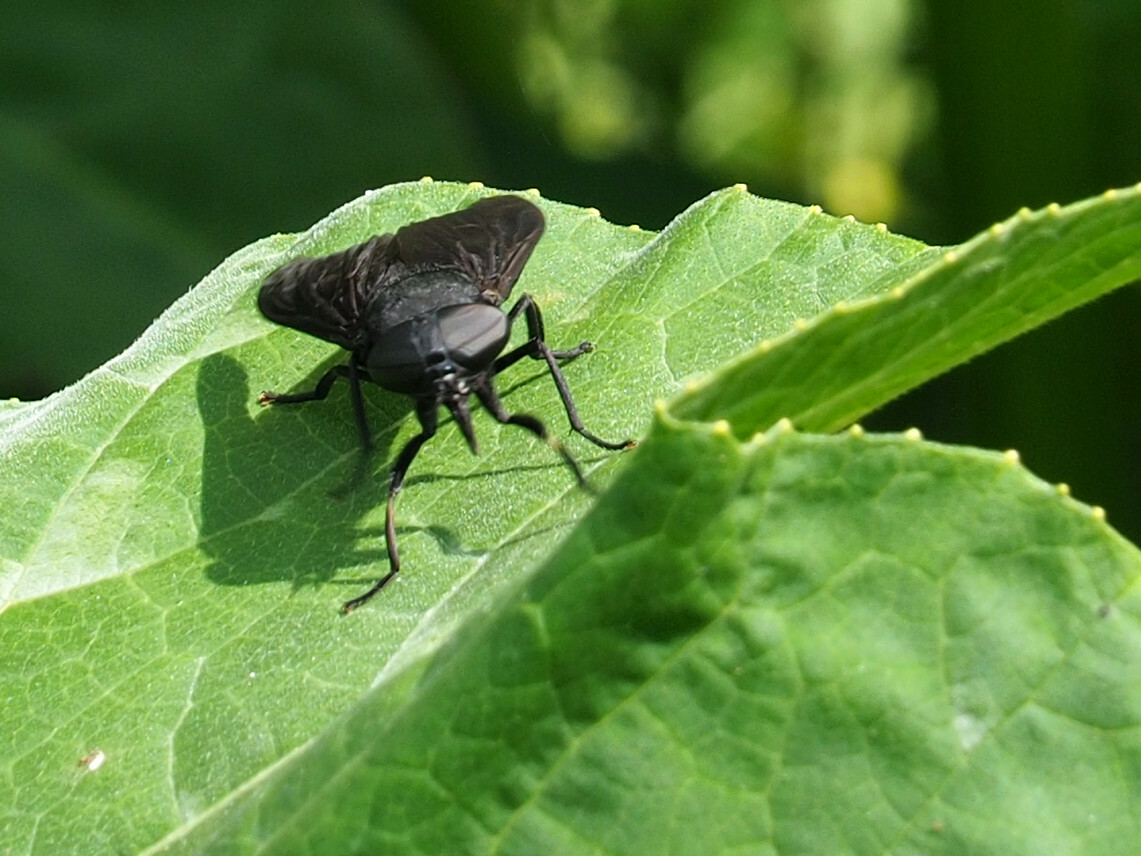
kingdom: Animalia
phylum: Arthropoda
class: Insecta
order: Diptera
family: Tabanidae
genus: Tabanus
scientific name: Tabanus atratus
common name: Black horse fly
